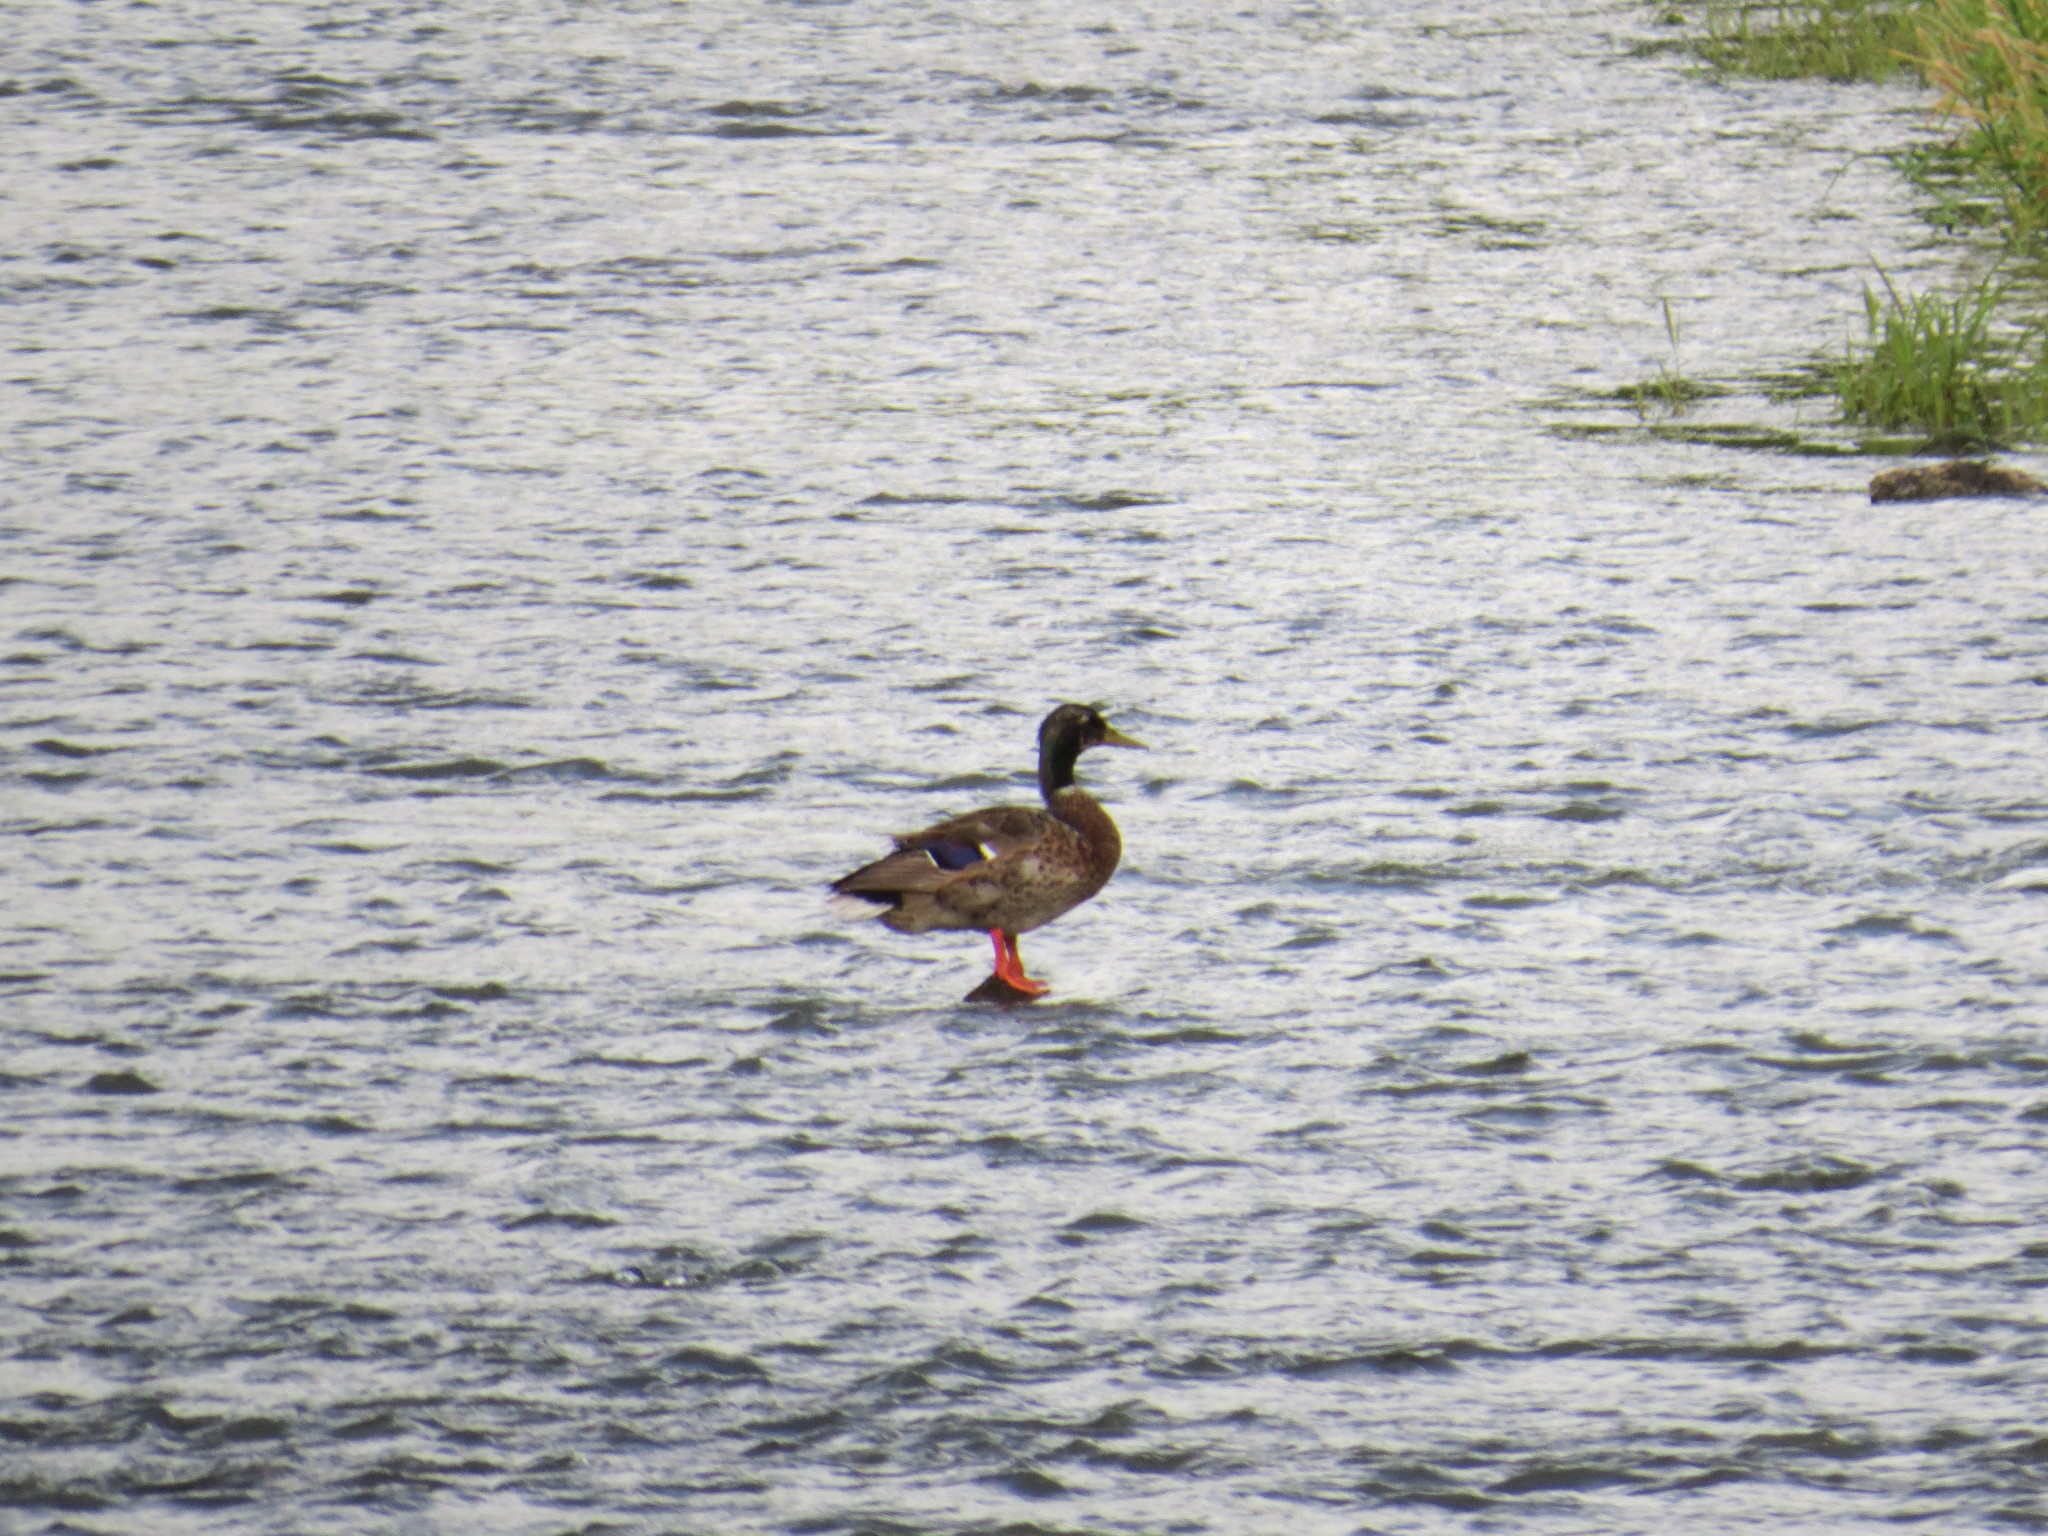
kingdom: Animalia
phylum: Chordata
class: Aves
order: Anseriformes
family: Anatidae
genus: Anas
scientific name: Anas platyrhynchos
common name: Mallard
